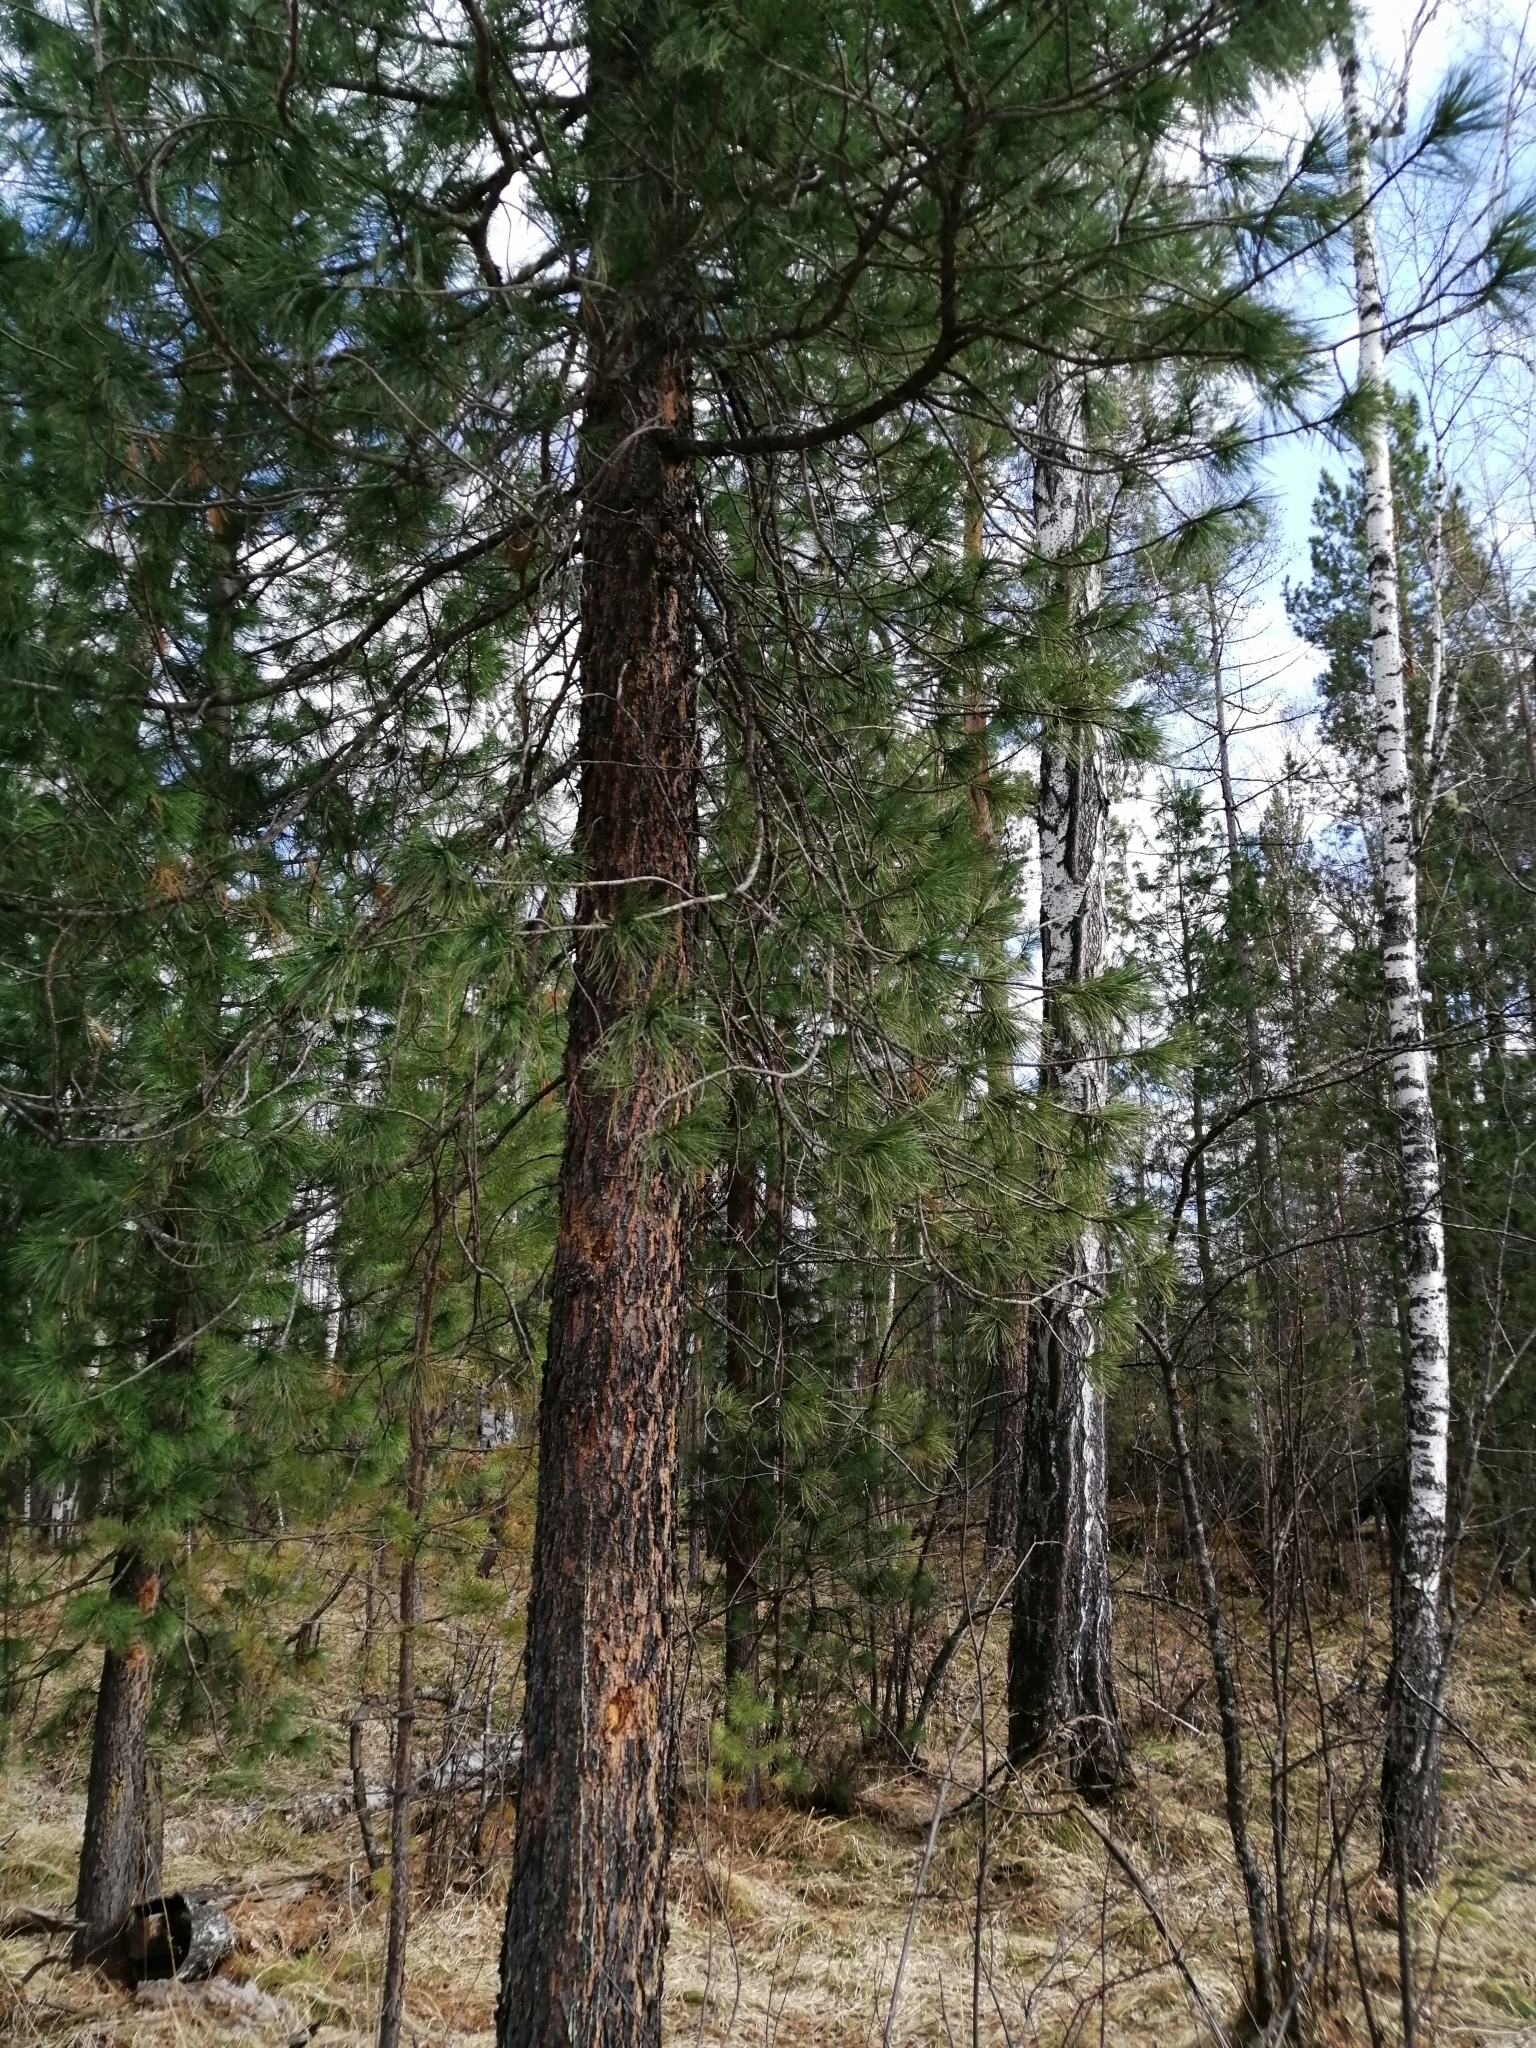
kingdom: Plantae
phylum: Tracheophyta
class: Pinopsida
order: Pinales
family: Pinaceae
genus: Pinus
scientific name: Pinus sibirica
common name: Siberian pine
